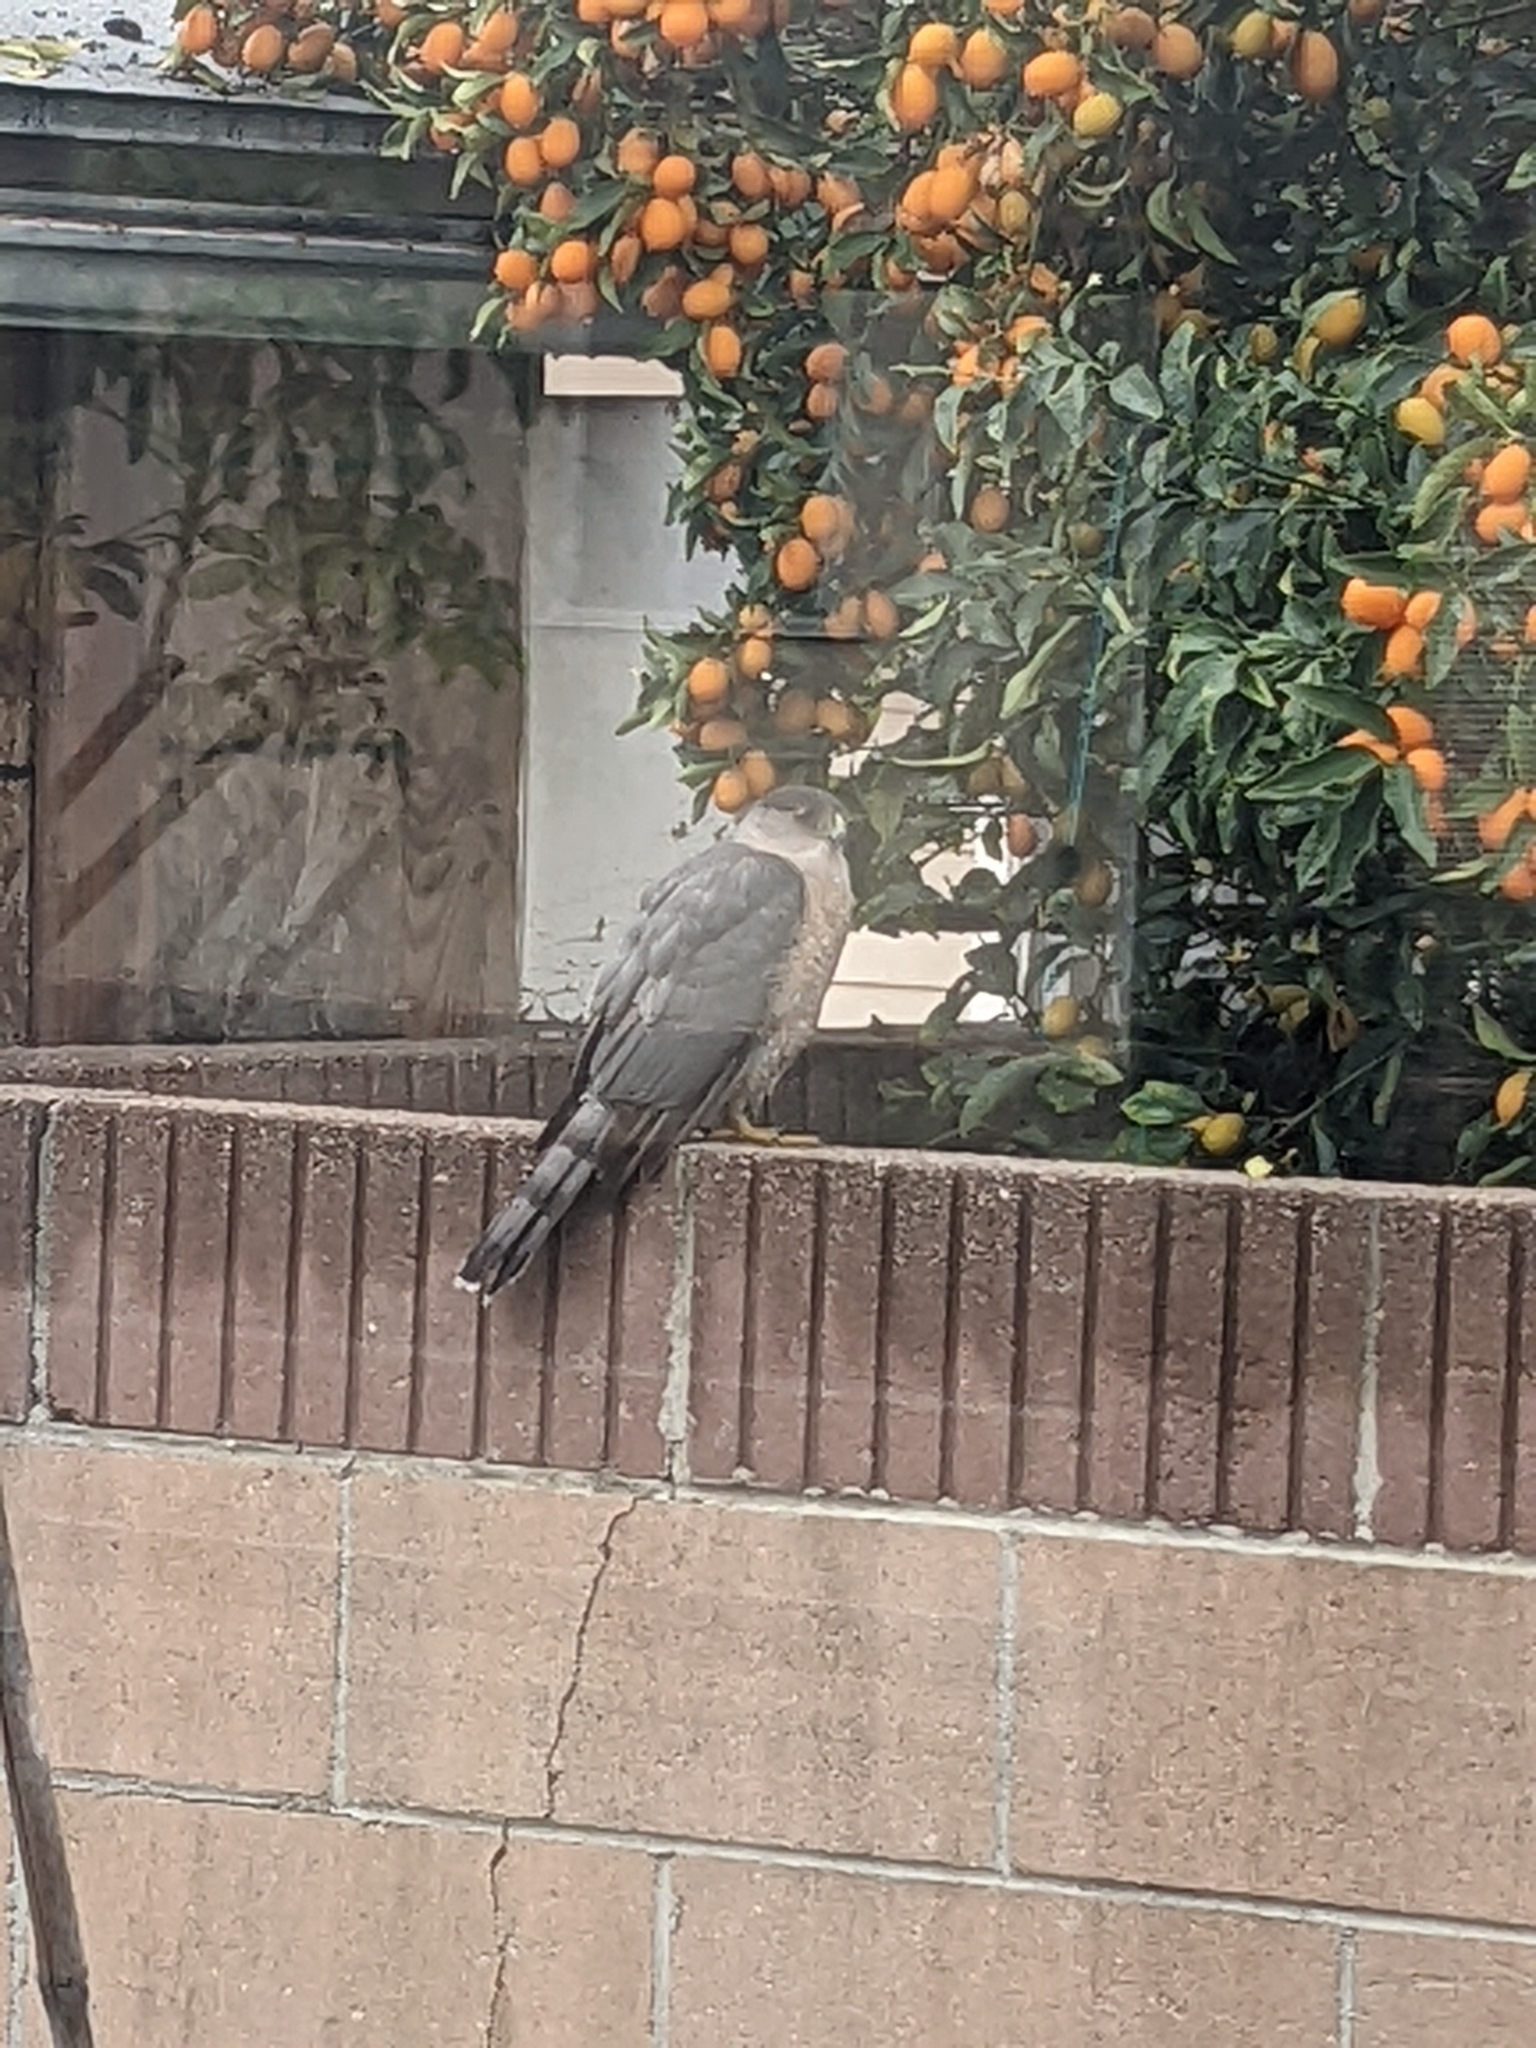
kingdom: Animalia
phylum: Chordata
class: Aves
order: Accipitriformes
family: Accipitridae
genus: Accipiter
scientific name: Accipiter cooperii
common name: Cooper's hawk
